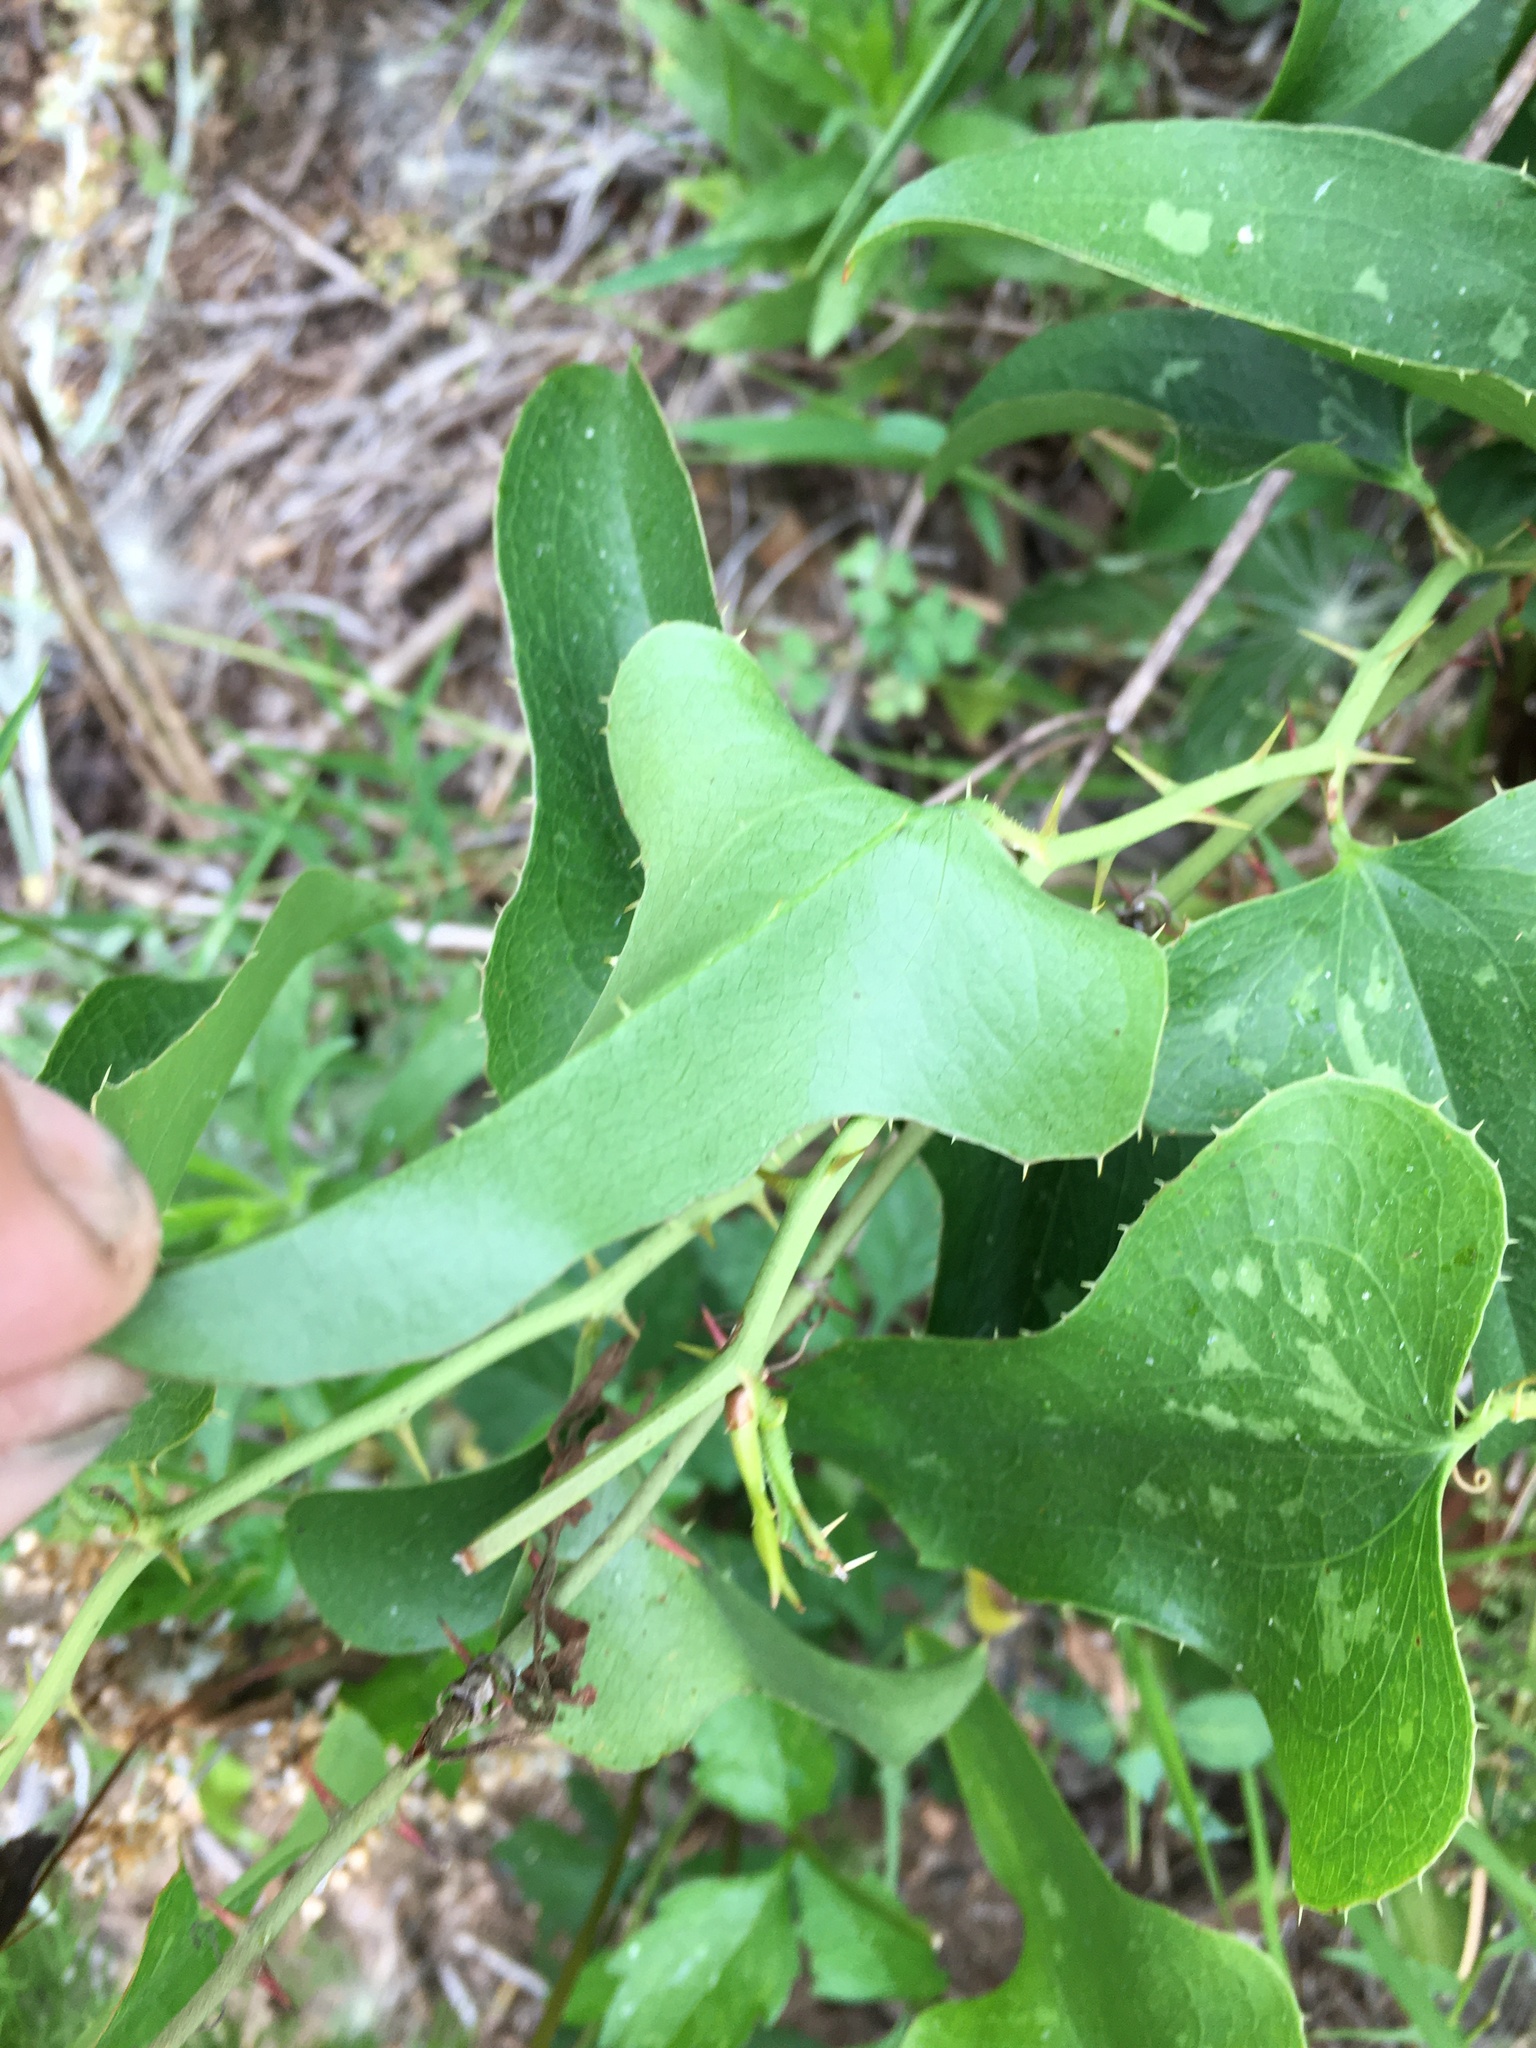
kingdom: Plantae
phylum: Tracheophyta
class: Liliopsida
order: Liliales
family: Smilacaceae
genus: Smilax
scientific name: Smilax bona-nox
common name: Catbrier
